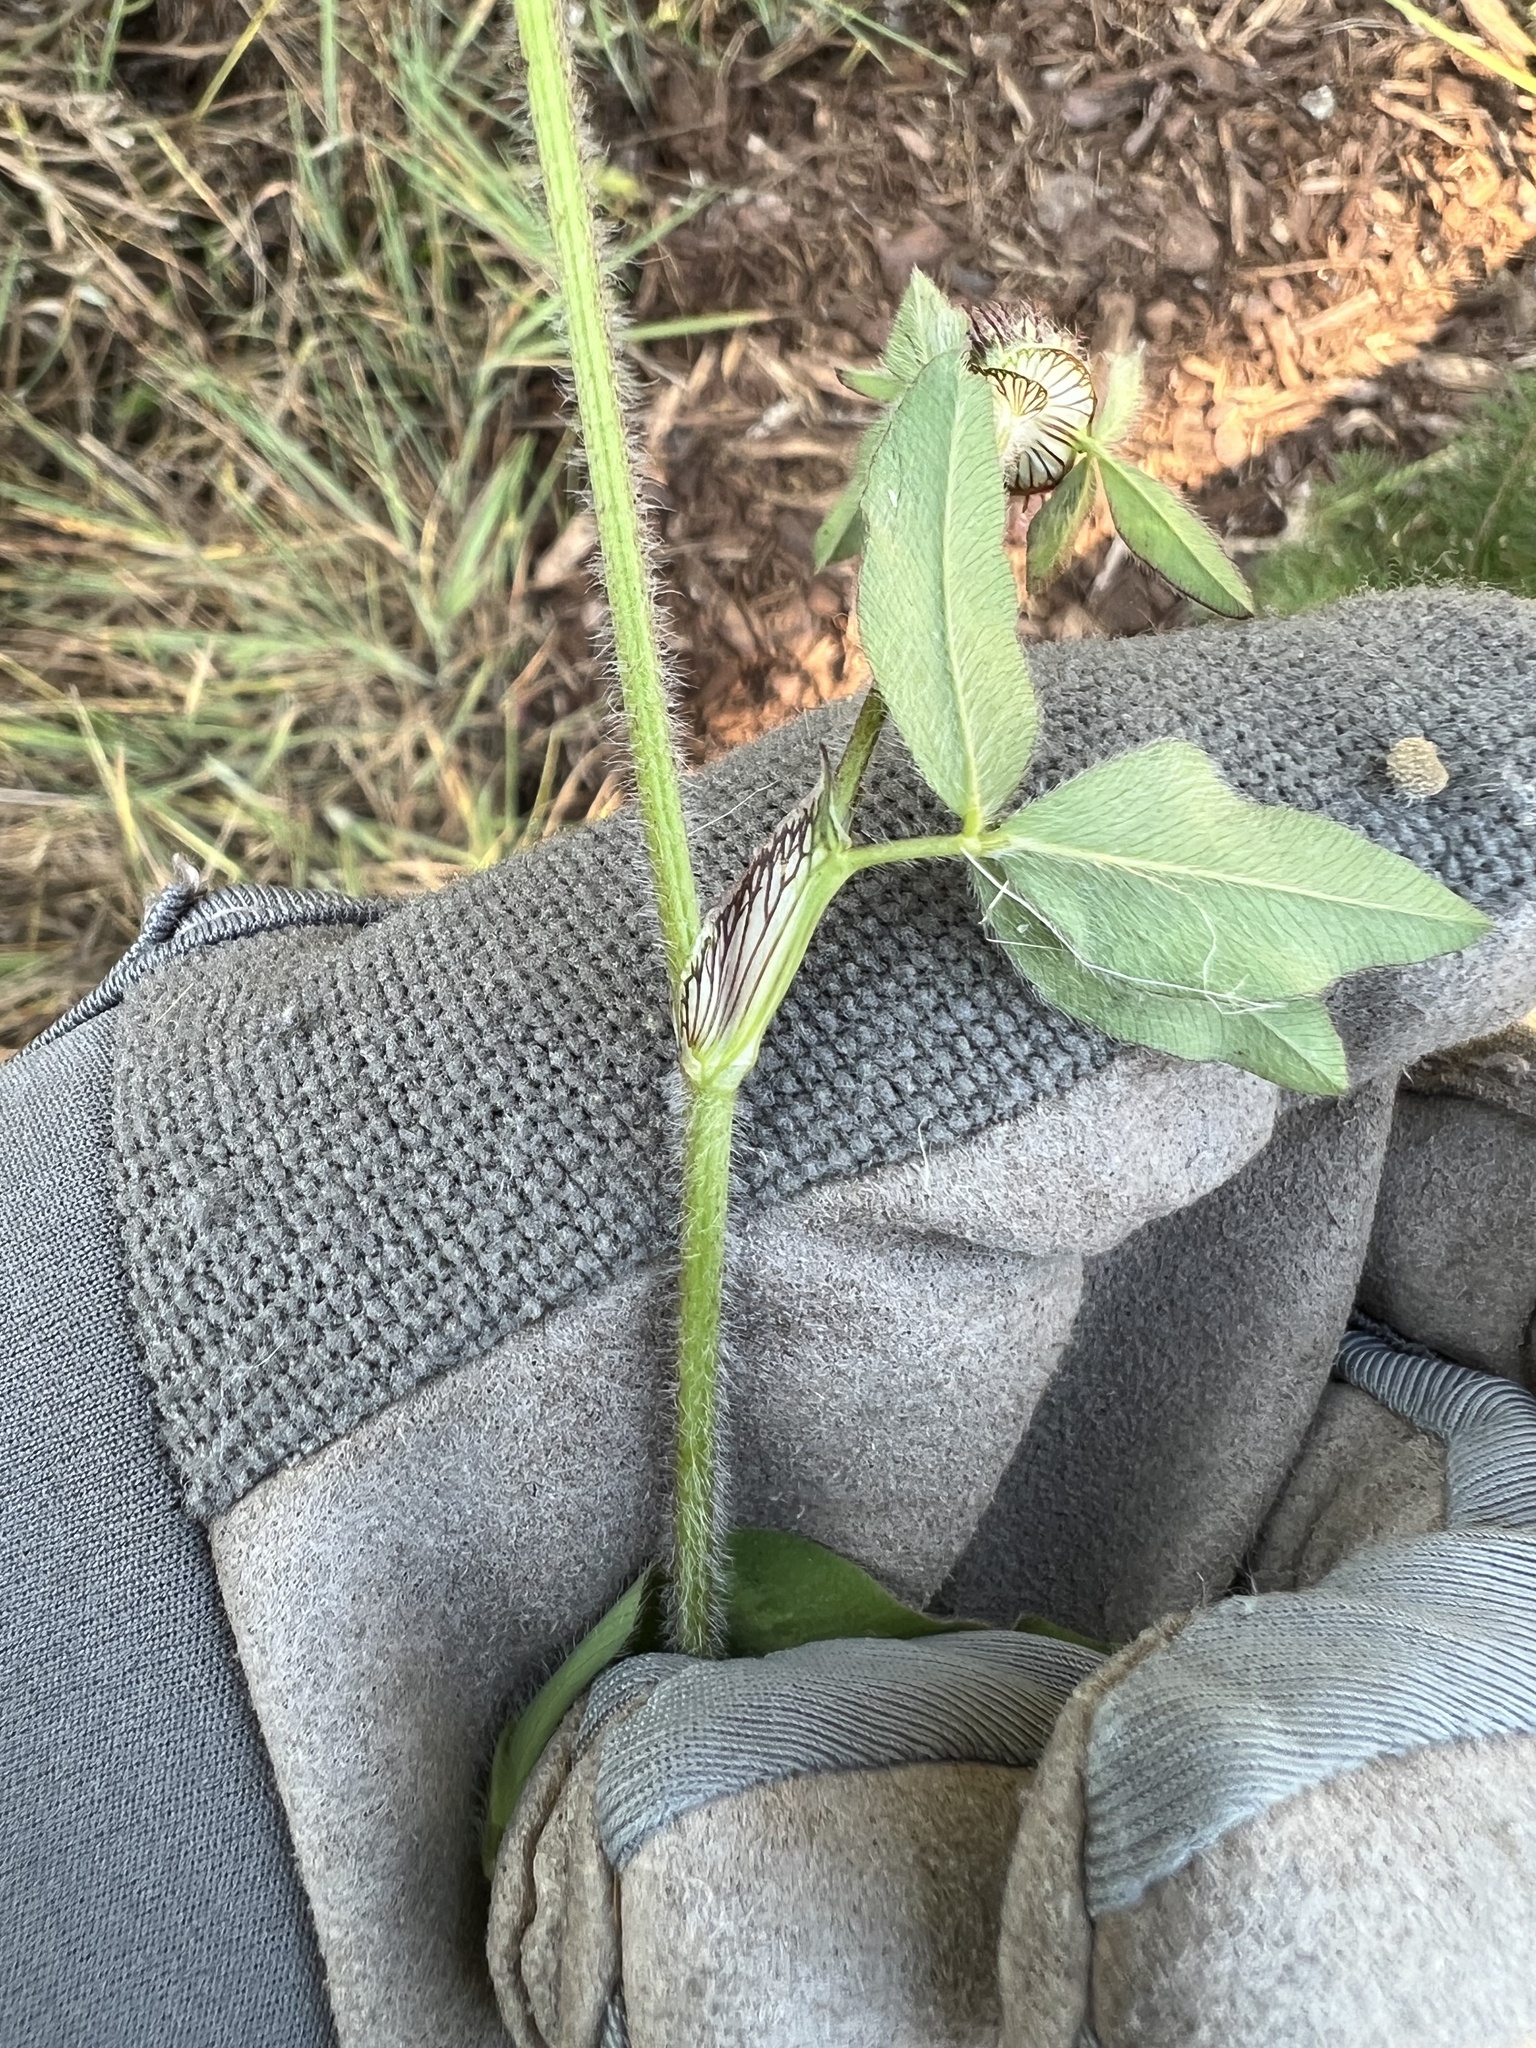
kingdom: Plantae
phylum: Tracheophyta
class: Magnoliopsida
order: Fabales
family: Fabaceae
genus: Trifolium
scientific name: Trifolium pratense
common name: Red clover
